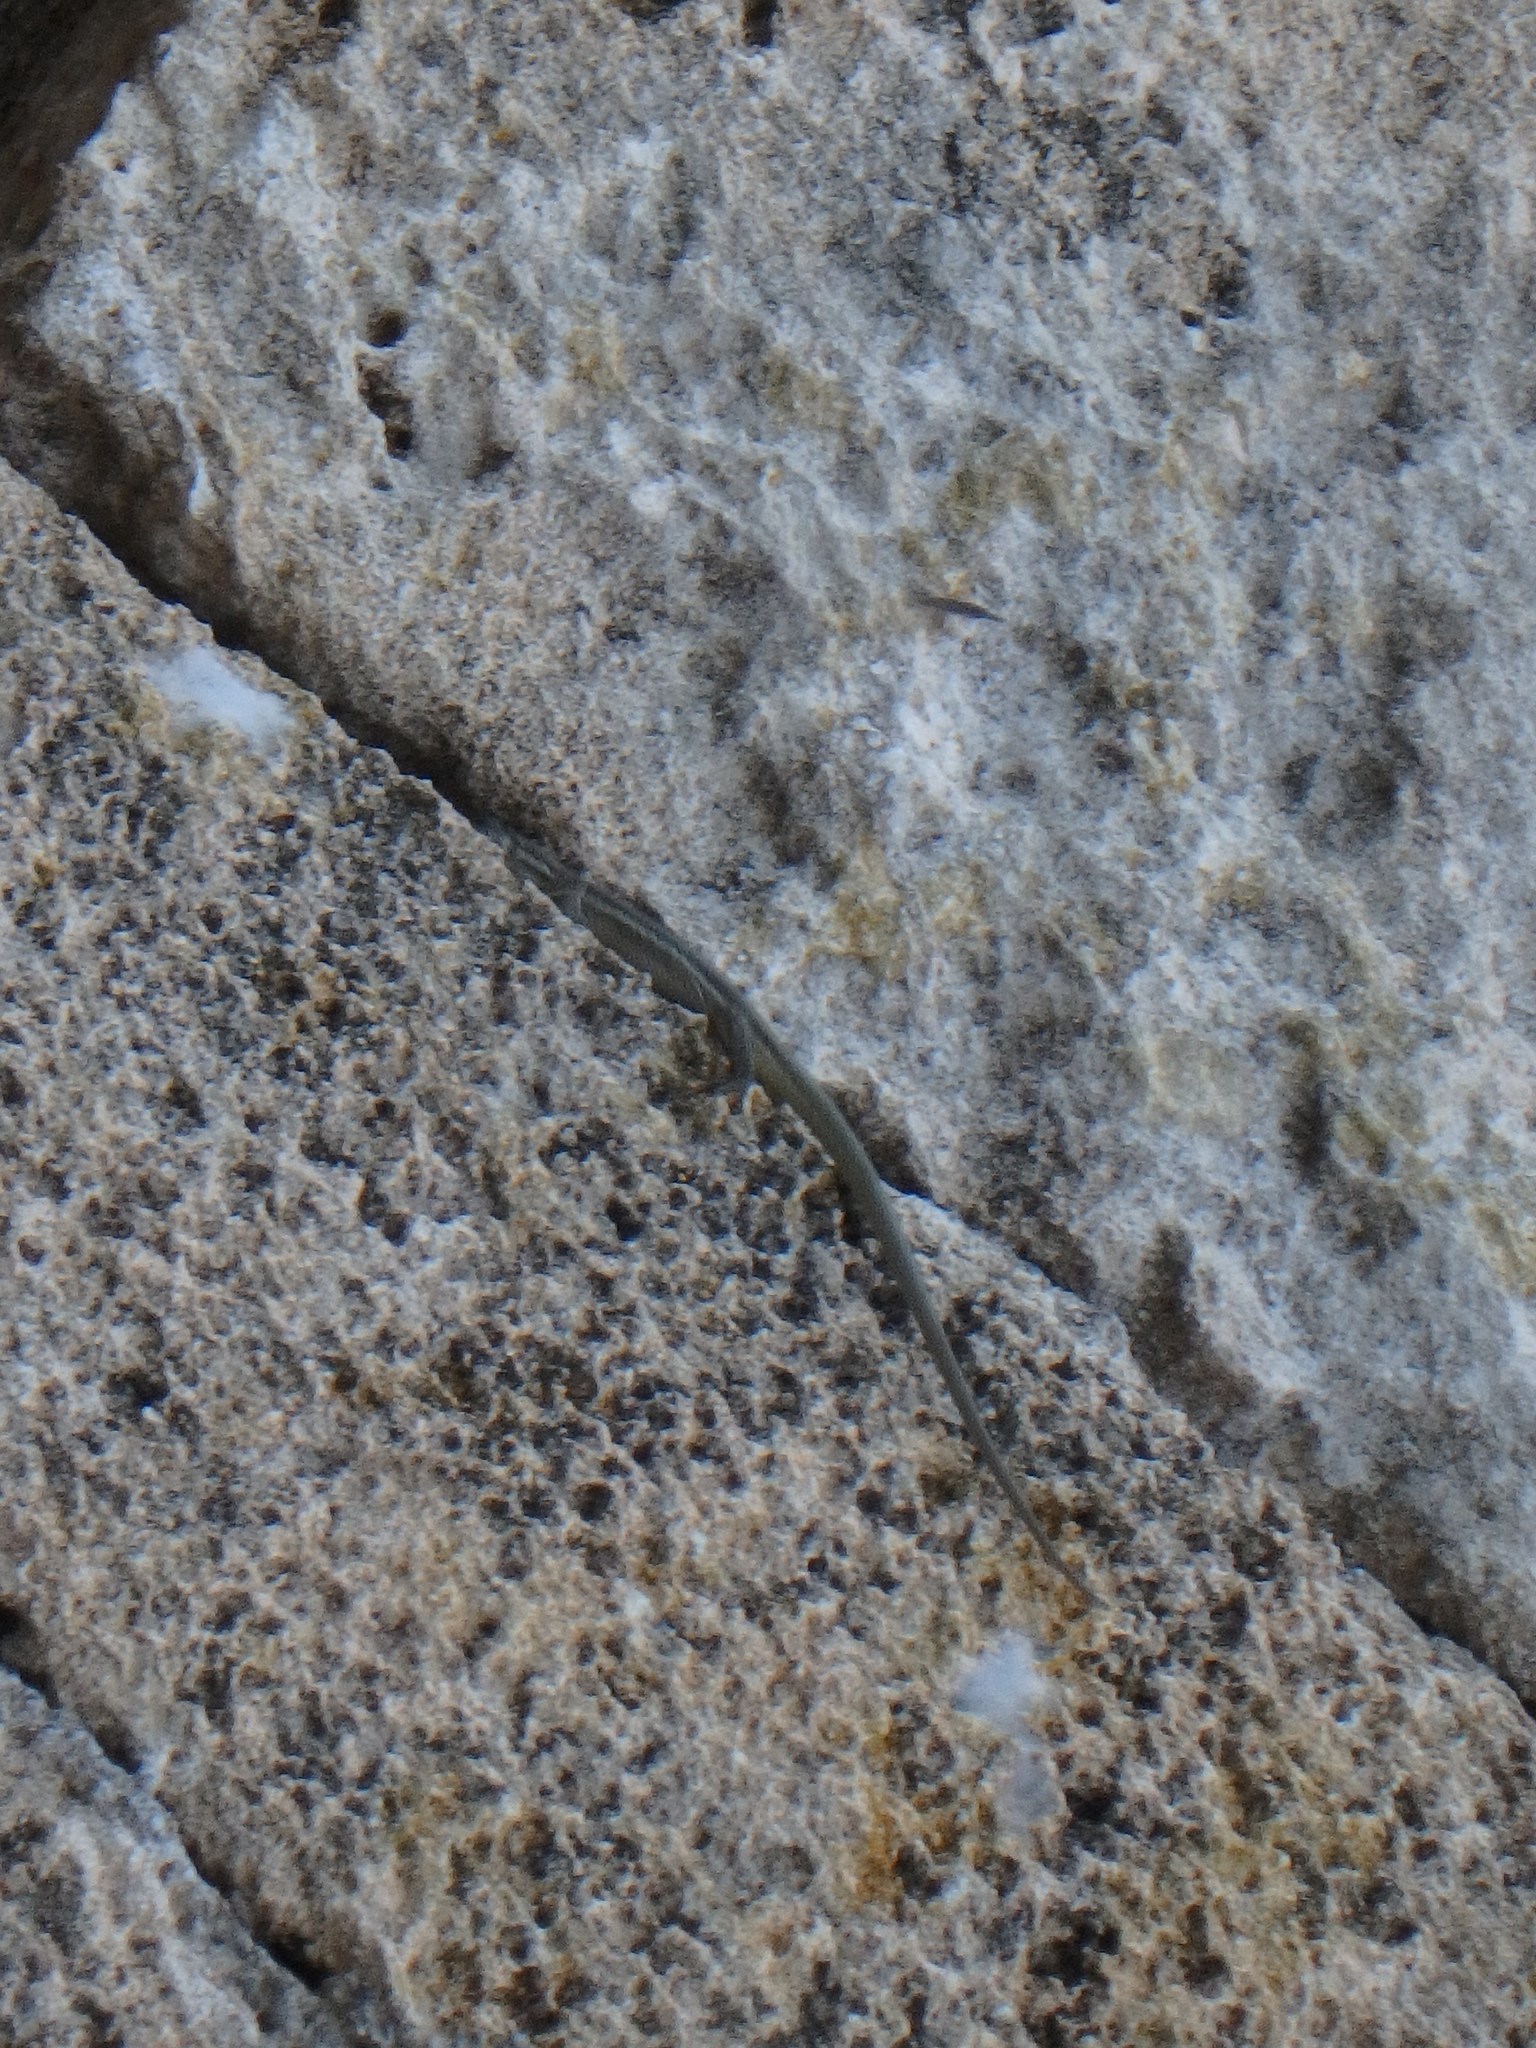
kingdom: Animalia
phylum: Chordata
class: Squamata
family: Lacertidae
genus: Phoenicolacerta
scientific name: Phoenicolacerta troodica
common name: Troodos wall lizard
